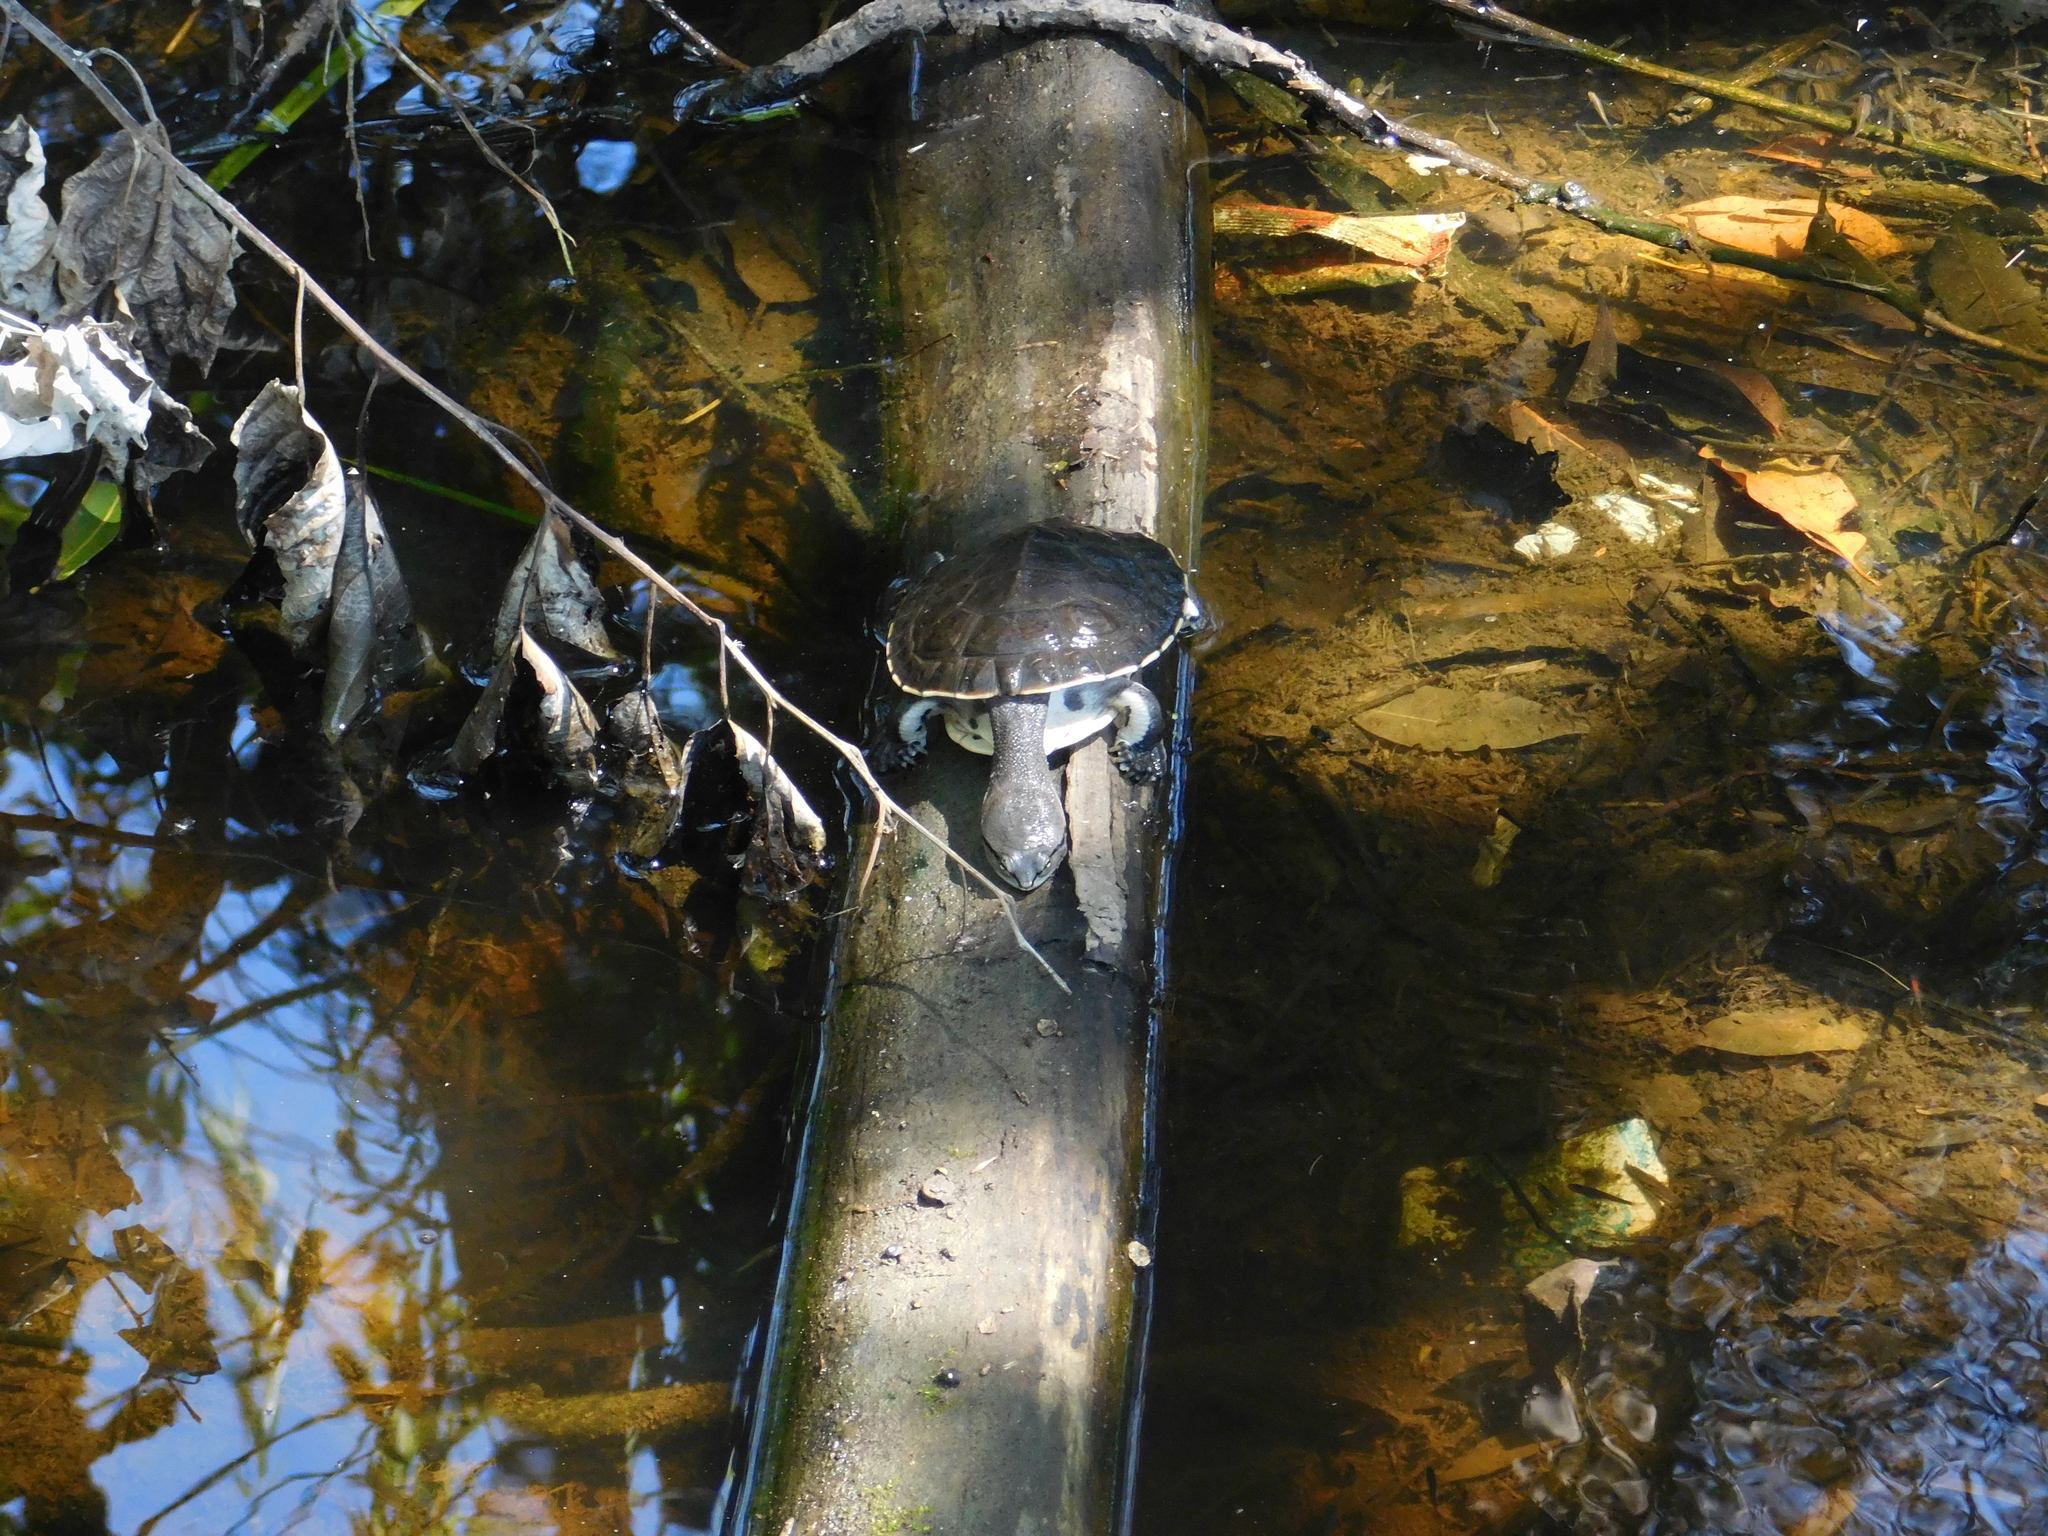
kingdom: Animalia
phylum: Chordata
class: Testudines
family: Chelidae
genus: Phrynops
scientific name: Phrynops hilarii
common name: Side-necked turtle of saint hillaire
